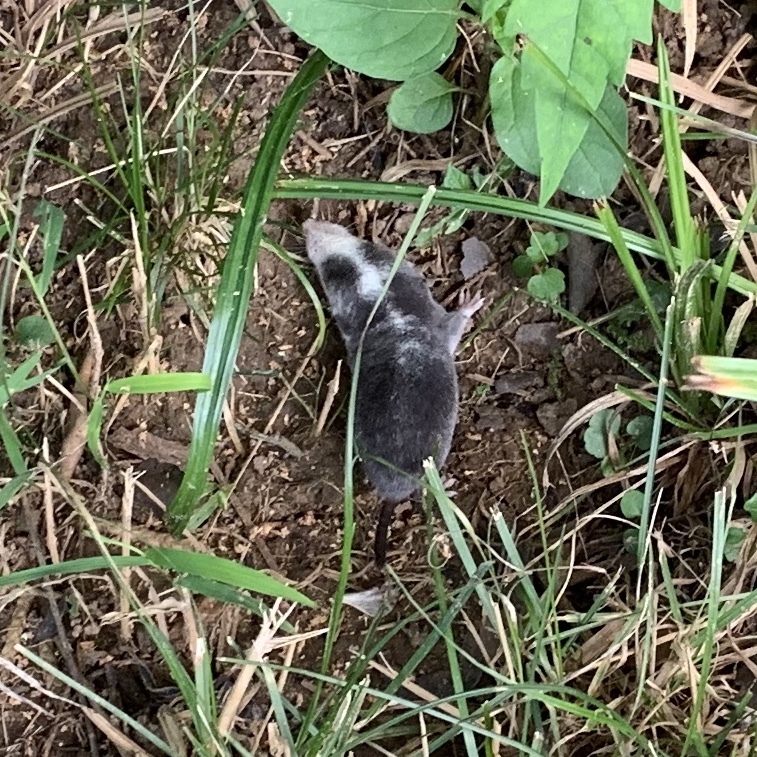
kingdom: Animalia
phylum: Chordata
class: Mammalia
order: Soricomorpha
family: Soricidae
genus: Blarina
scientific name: Blarina brevicauda
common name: Northern short-tailed shrew
